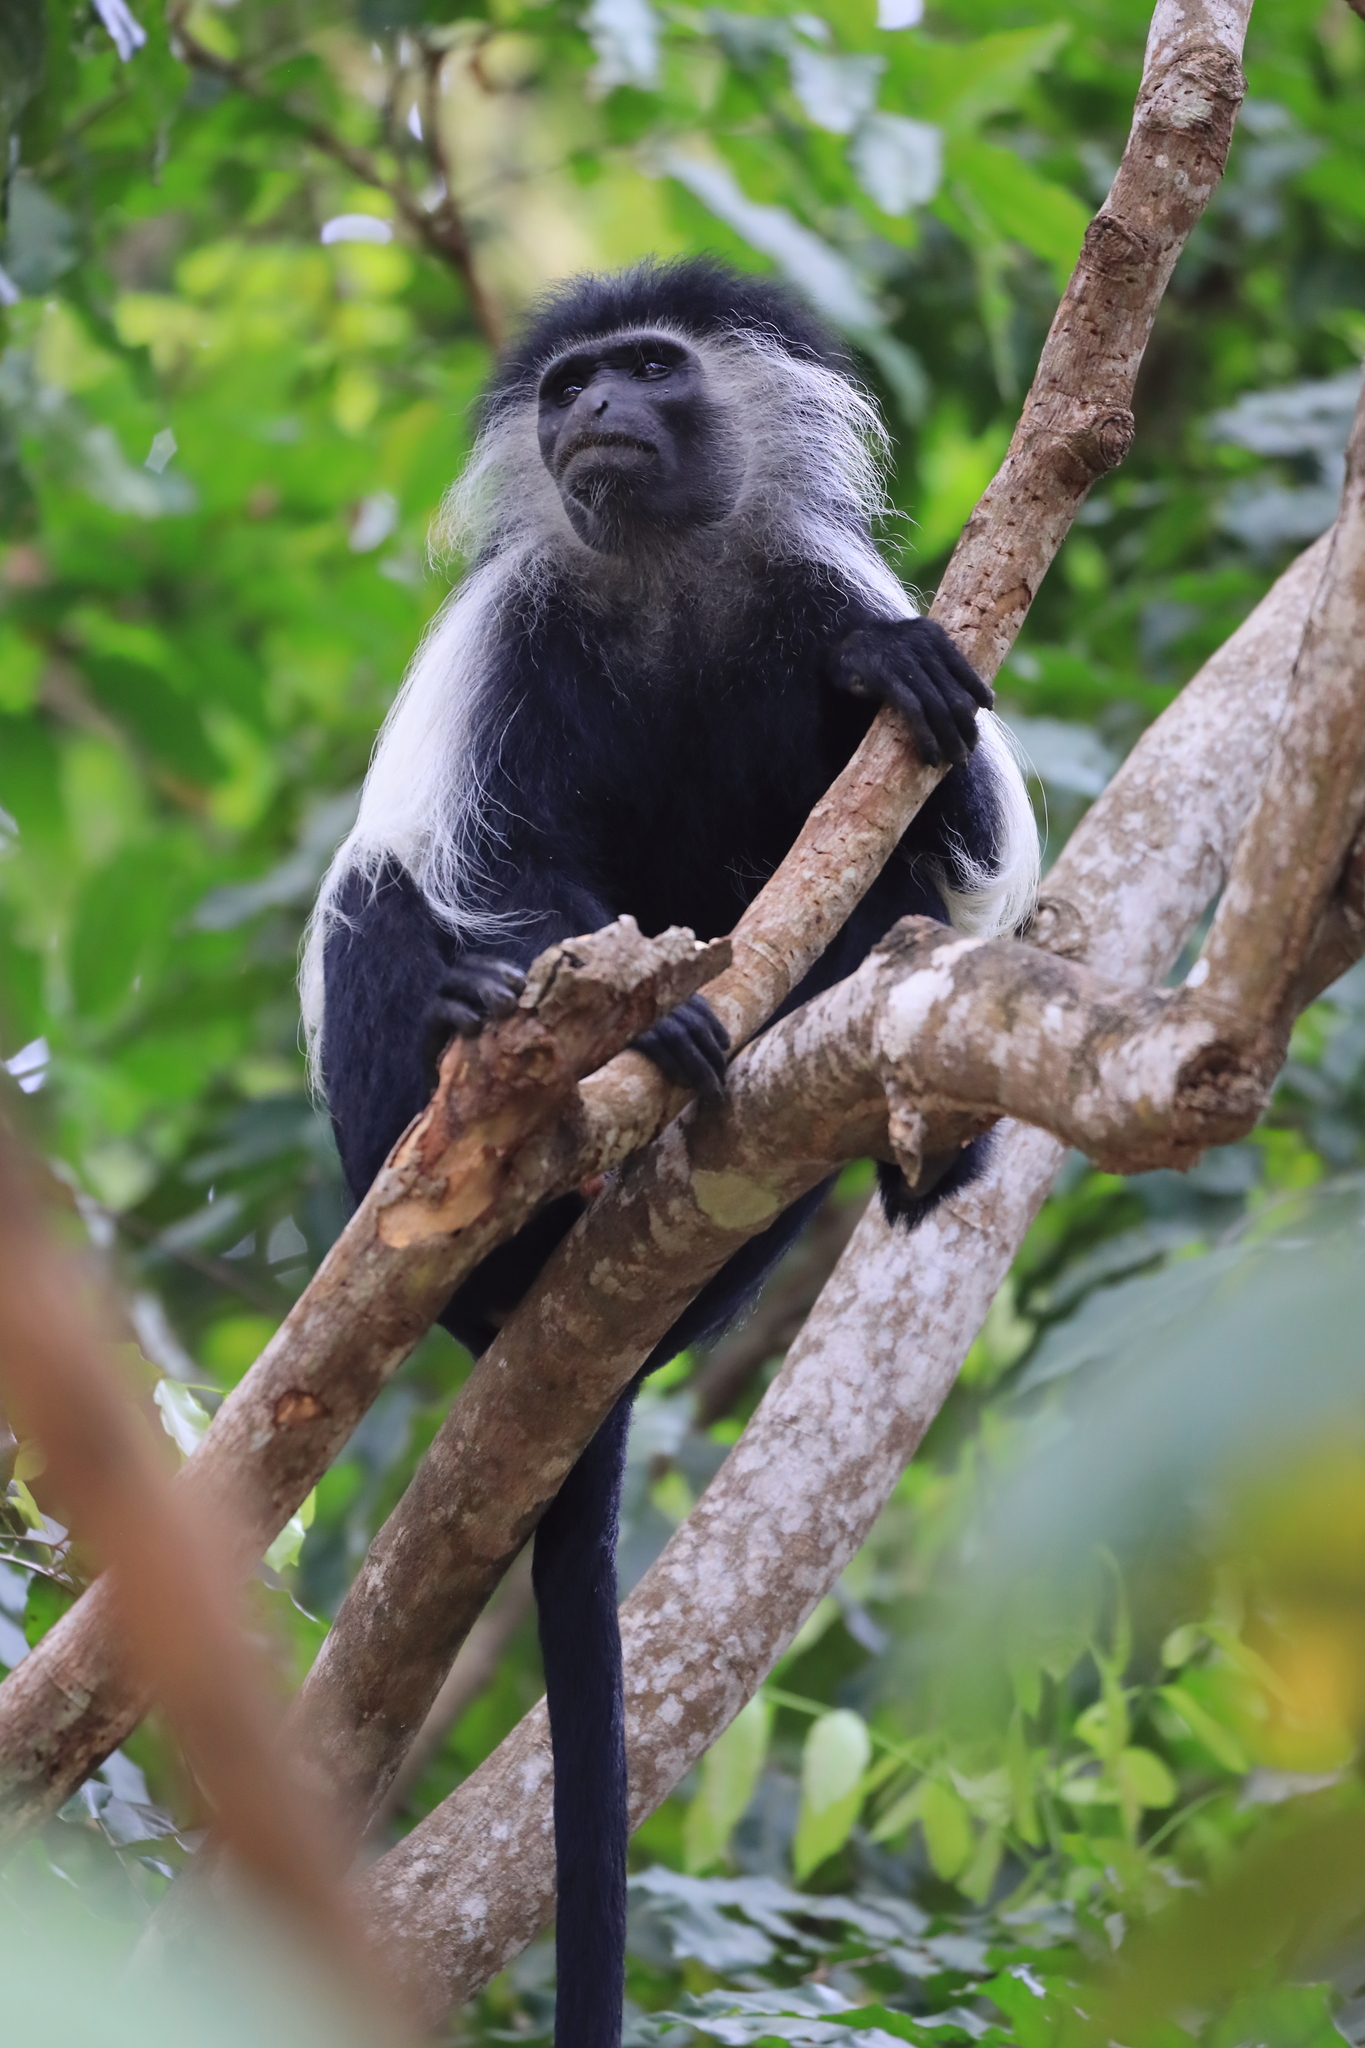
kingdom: Animalia
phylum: Chordata
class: Mammalia
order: Primates
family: Cercopithecidae
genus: Colobus
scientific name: Colobus angolensis
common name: Angola colobus
